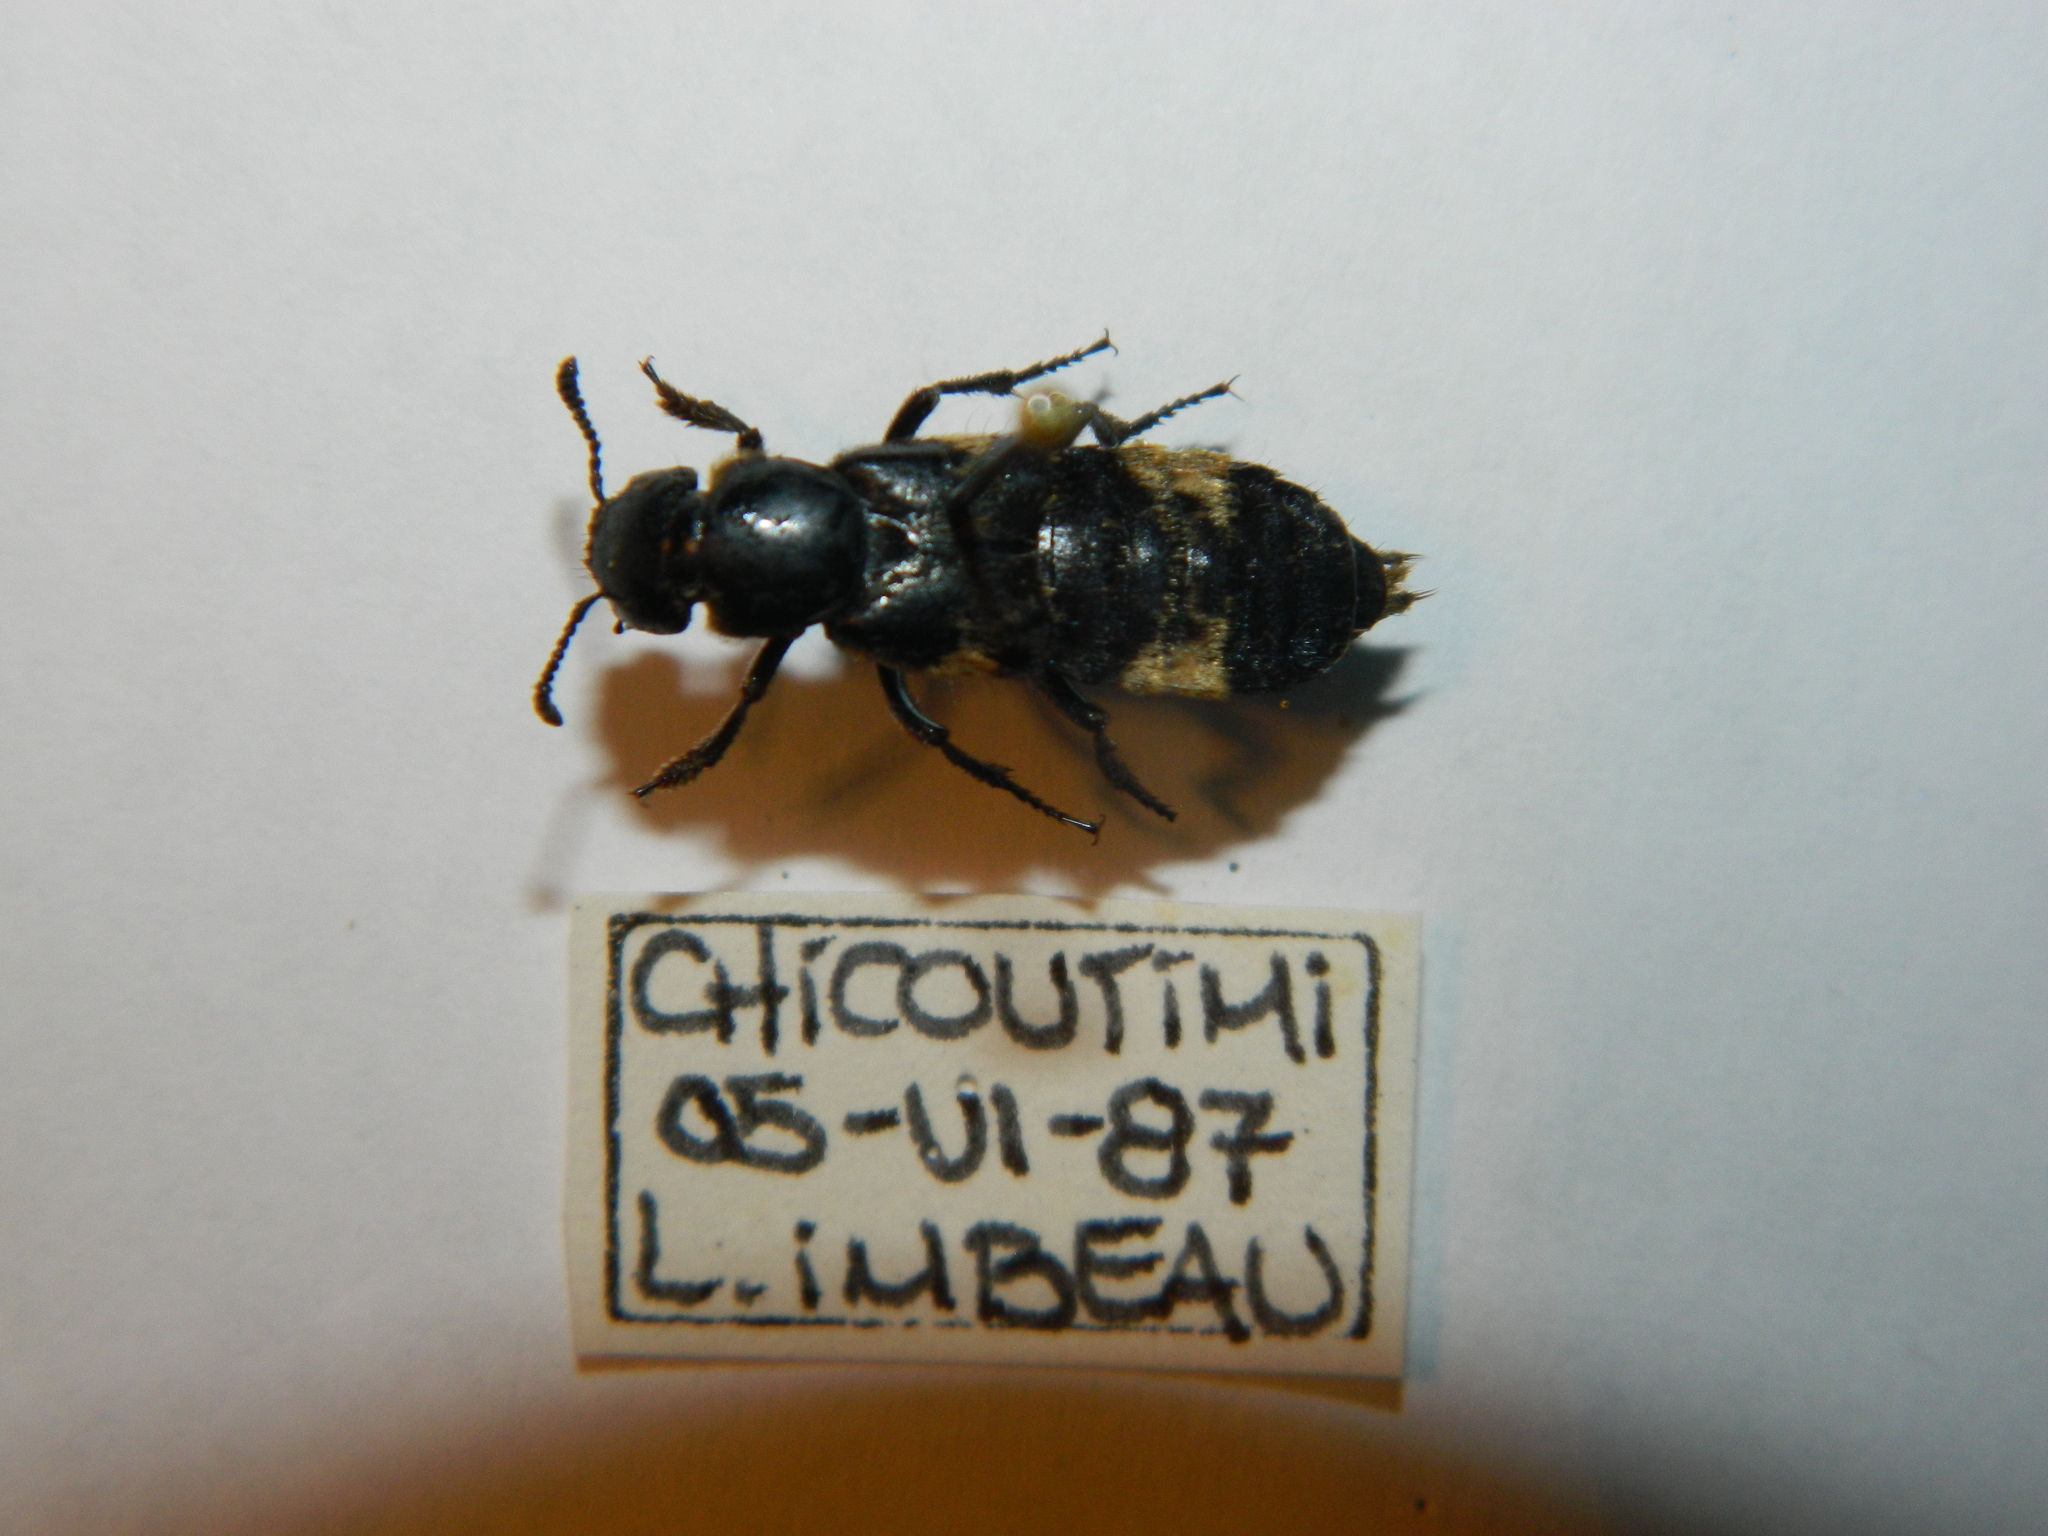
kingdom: Animalia
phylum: Arthropoda
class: Insecta
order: Coleoptera
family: Staphylinidae
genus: Creophilus
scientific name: Creophilus maxillosus
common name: Hairy rove beetle
